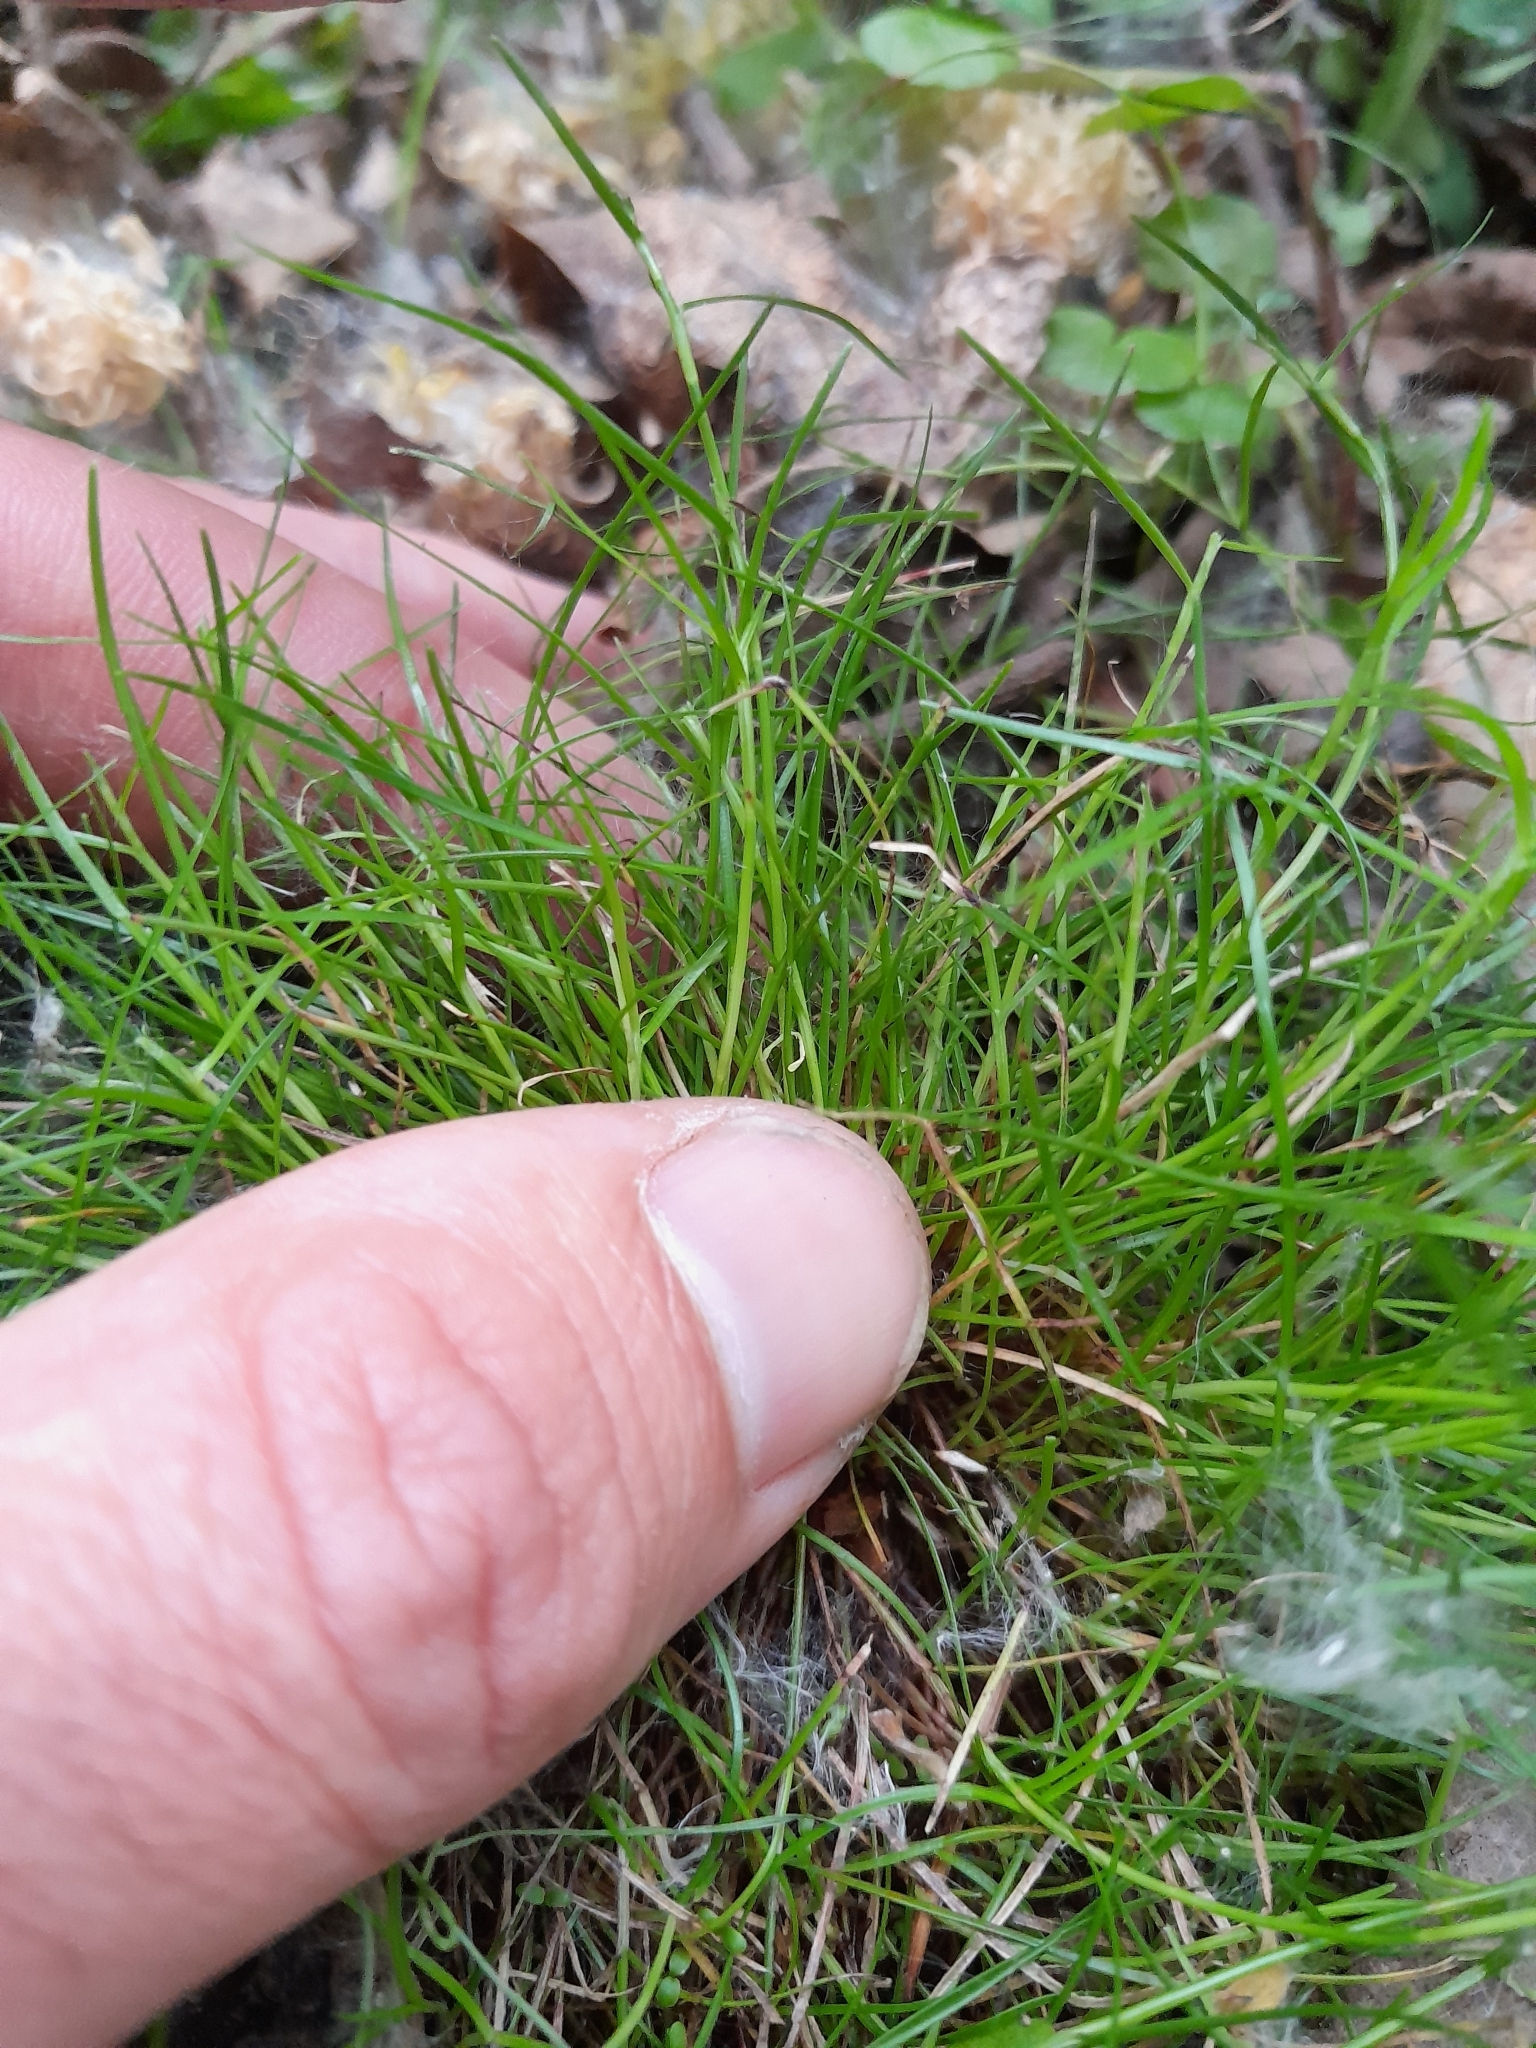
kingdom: Plantae
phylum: Tracheophyta
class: Liliopsida
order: Poales
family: Cyperaceae
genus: Schoenus
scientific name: Schoenus maschalinus
